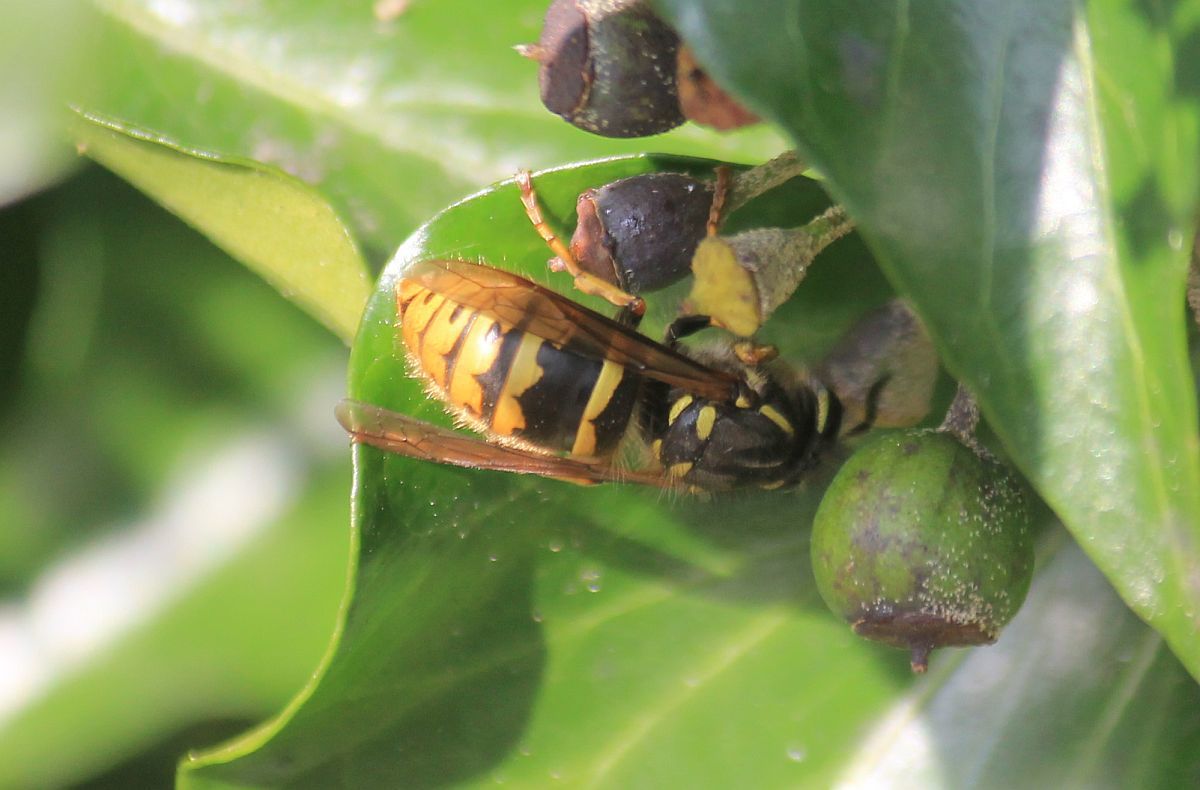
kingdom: Animalia
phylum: Arthropoda
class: Insecta
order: Hymenoptera
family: Vespidae
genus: Vespula
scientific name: Vespula vulgaris
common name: Common wasp
